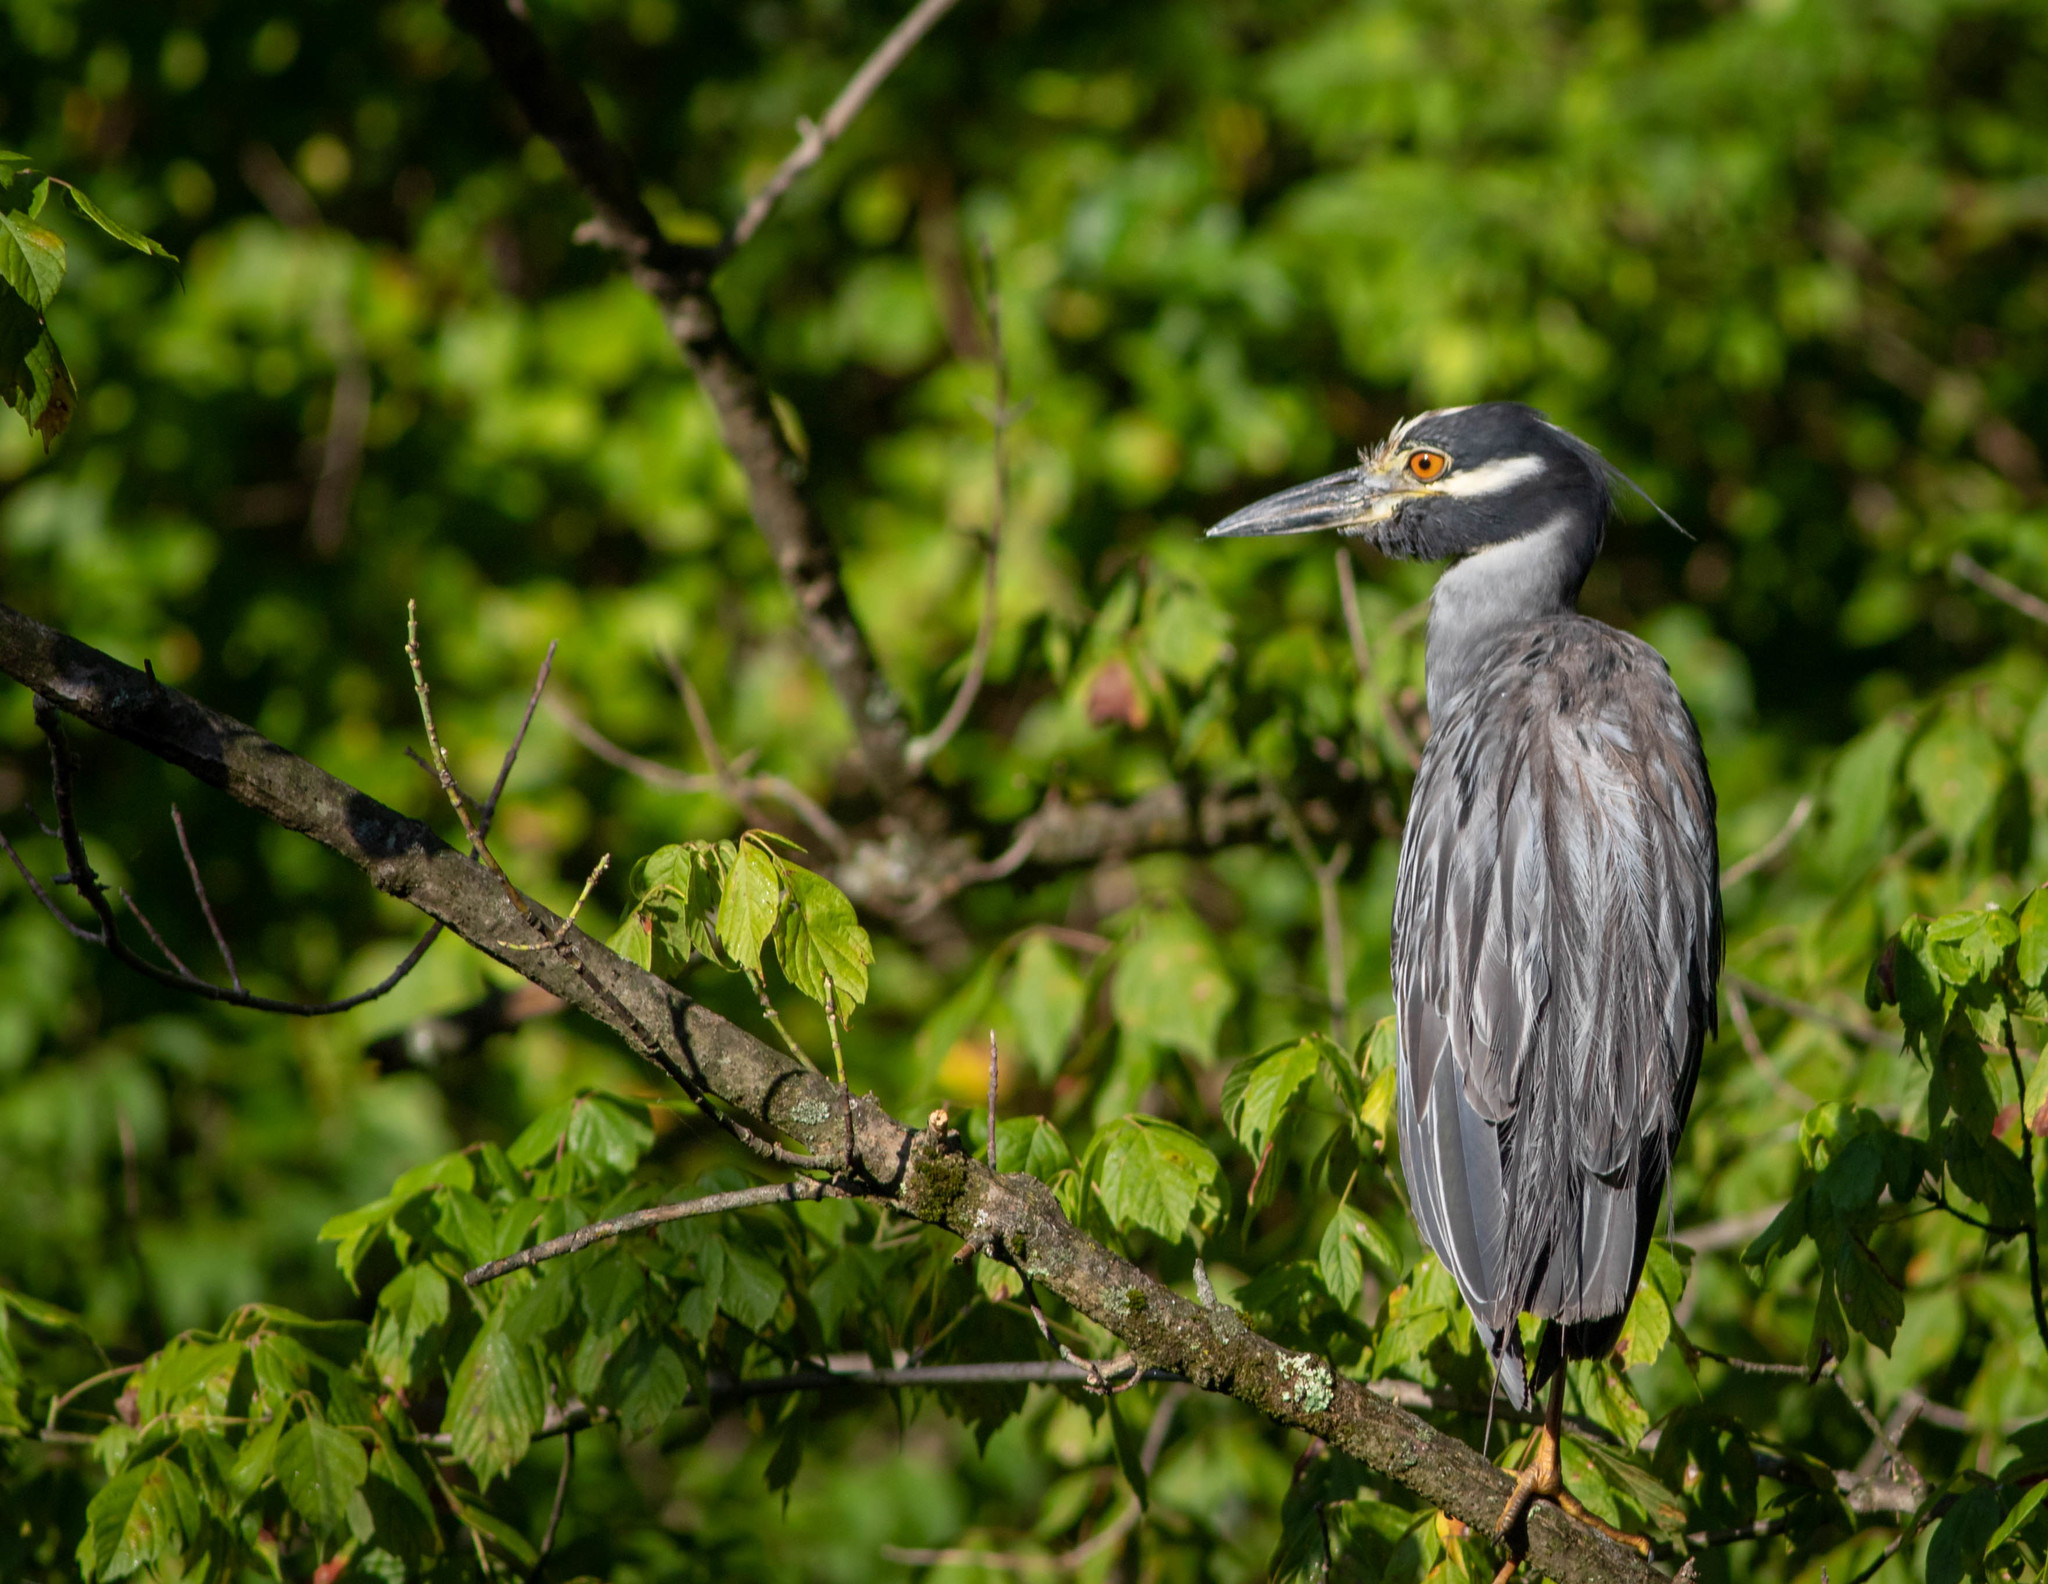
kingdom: Animalia
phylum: Chordata
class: Aves
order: Pelecaniformes
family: Ardeidae
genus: Nyctanassa
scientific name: Nyctanassa violacea
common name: Yellow-crowned night heron
